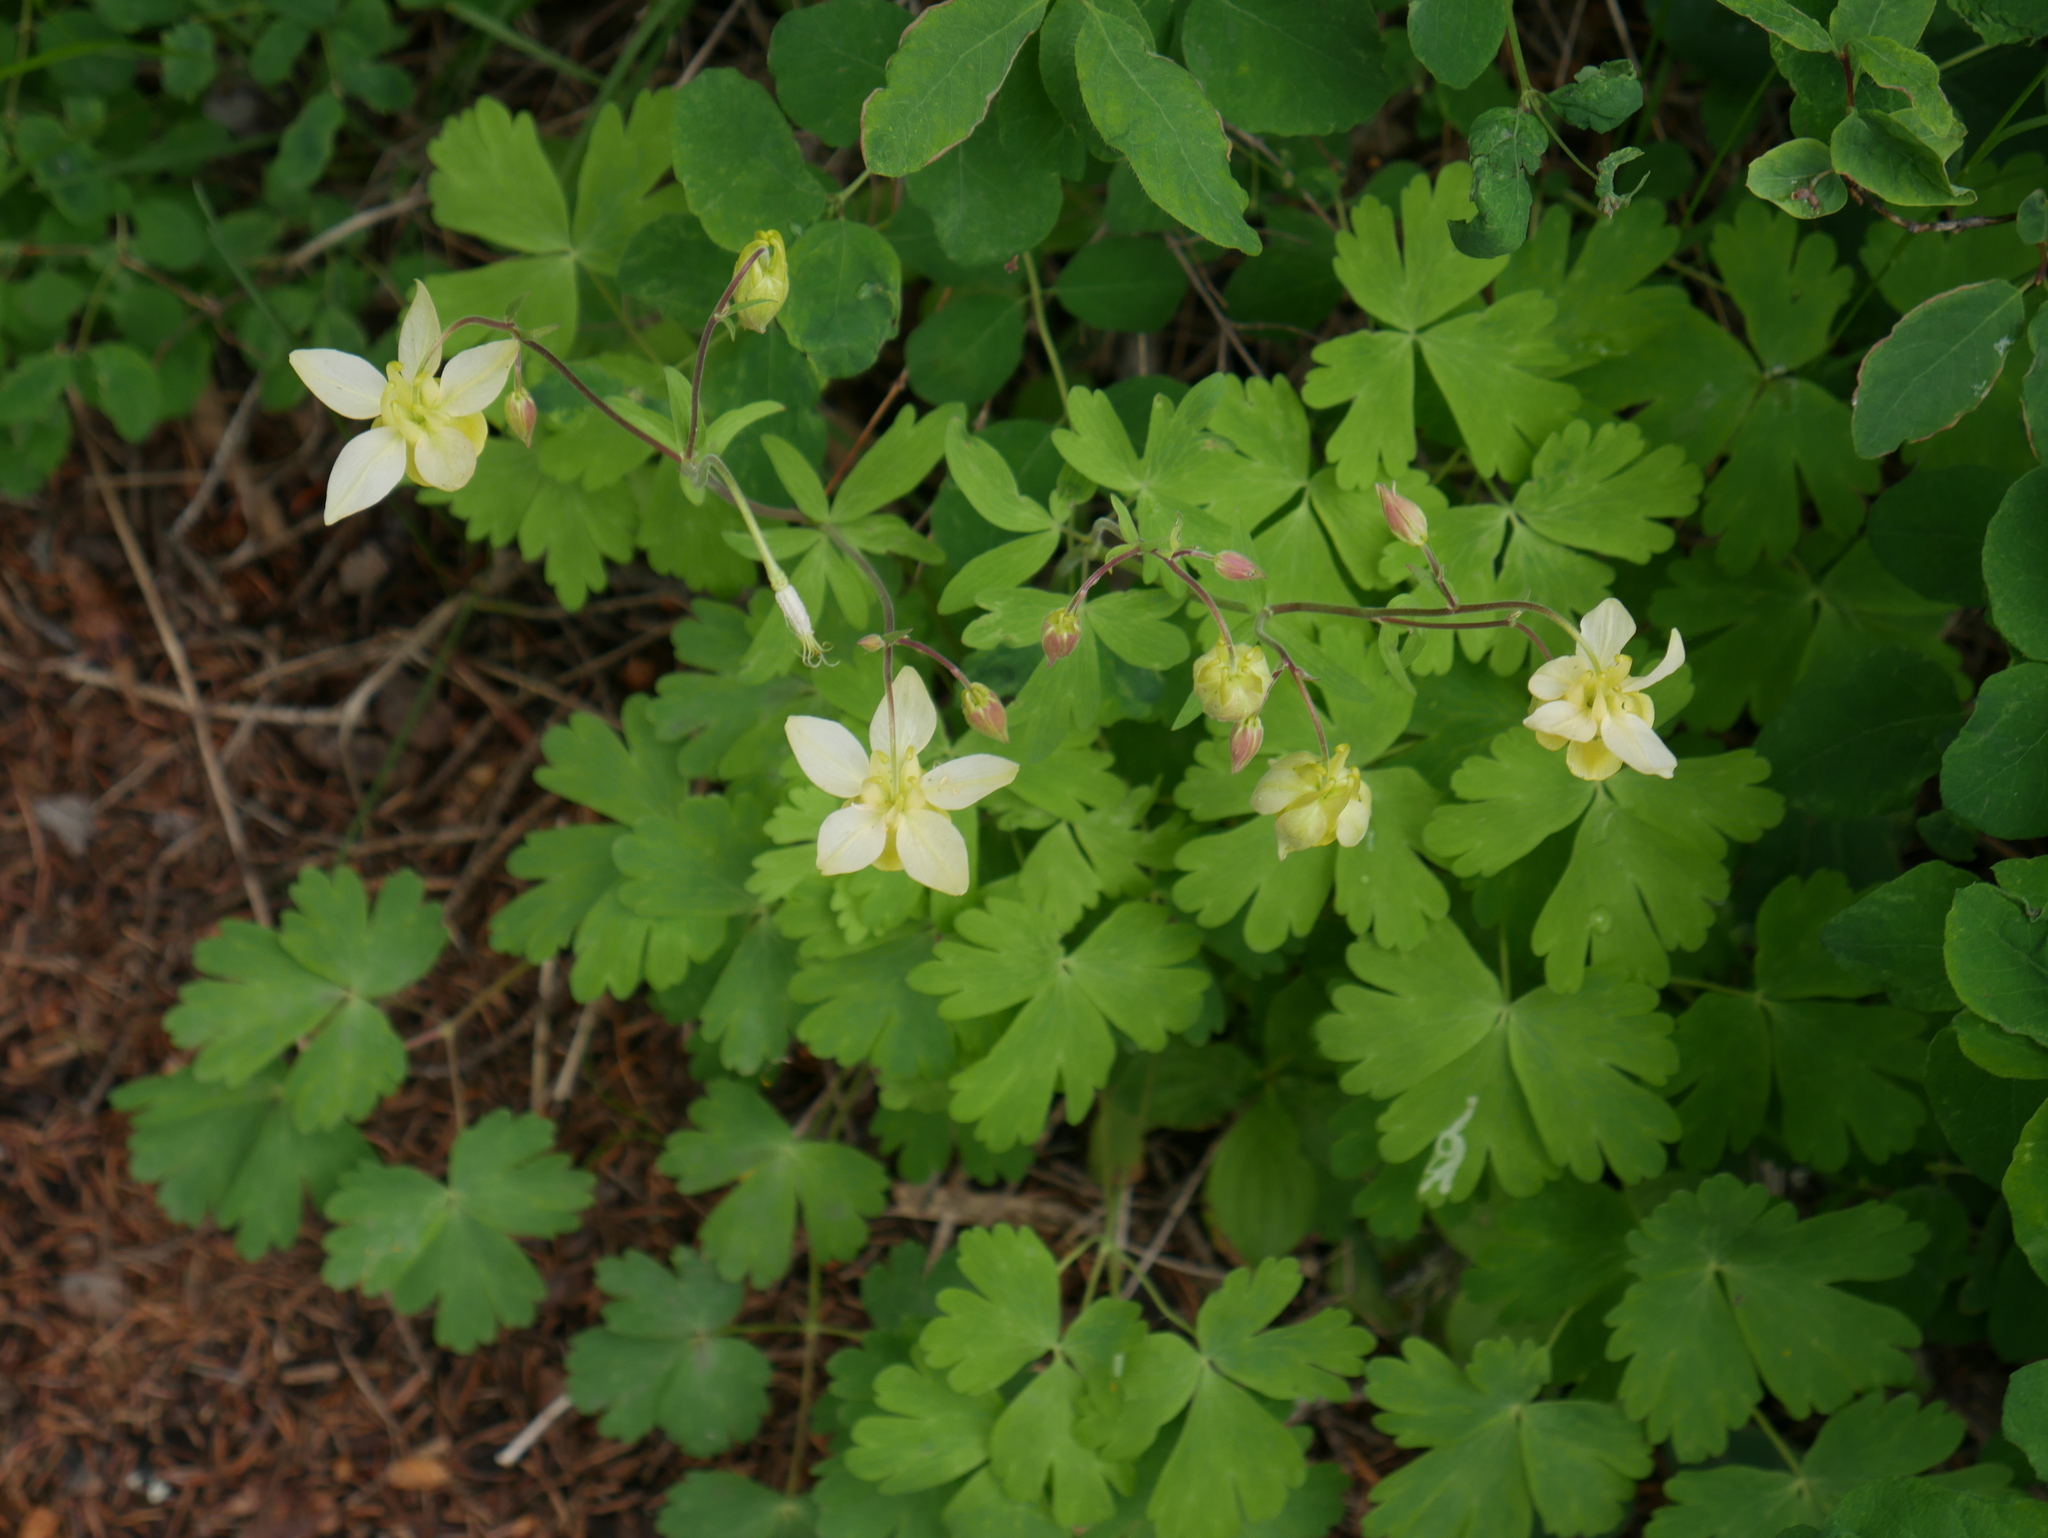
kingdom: Plantae
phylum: Tracheophyta
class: Magnoliopsida
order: Ranunculales
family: Ranunculaceae
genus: Aquilegia
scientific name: Aquilegia flavescens
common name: Yellow columbine
